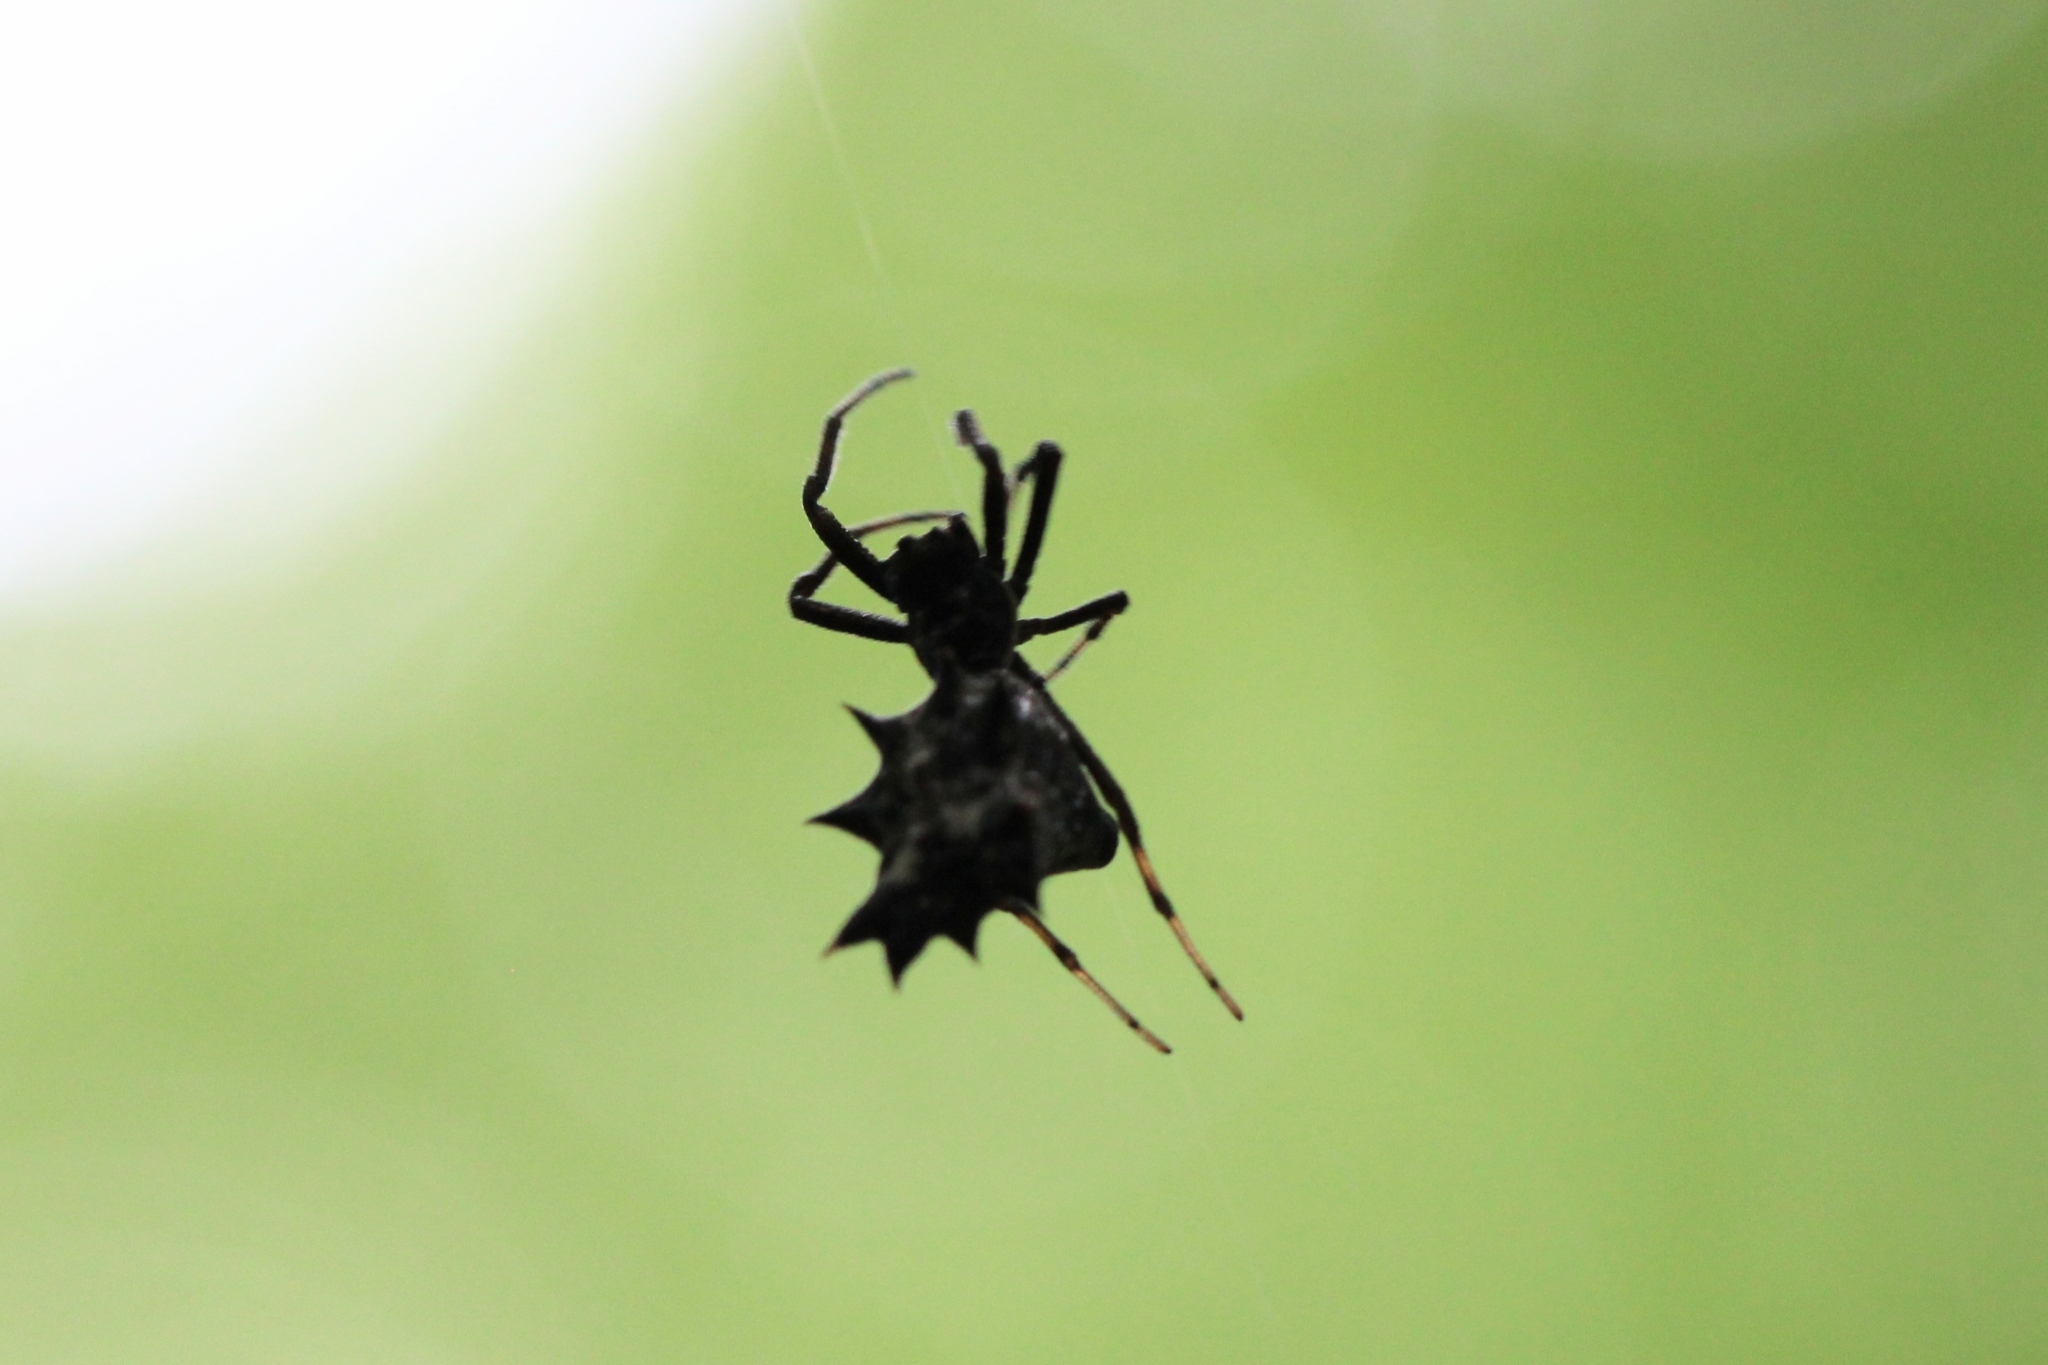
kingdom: Animalia
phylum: Arthropoda
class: Arachnida
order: Araneae
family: Araneidae
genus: Micrathena
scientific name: Micrathena gracilis
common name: Orb weavers
